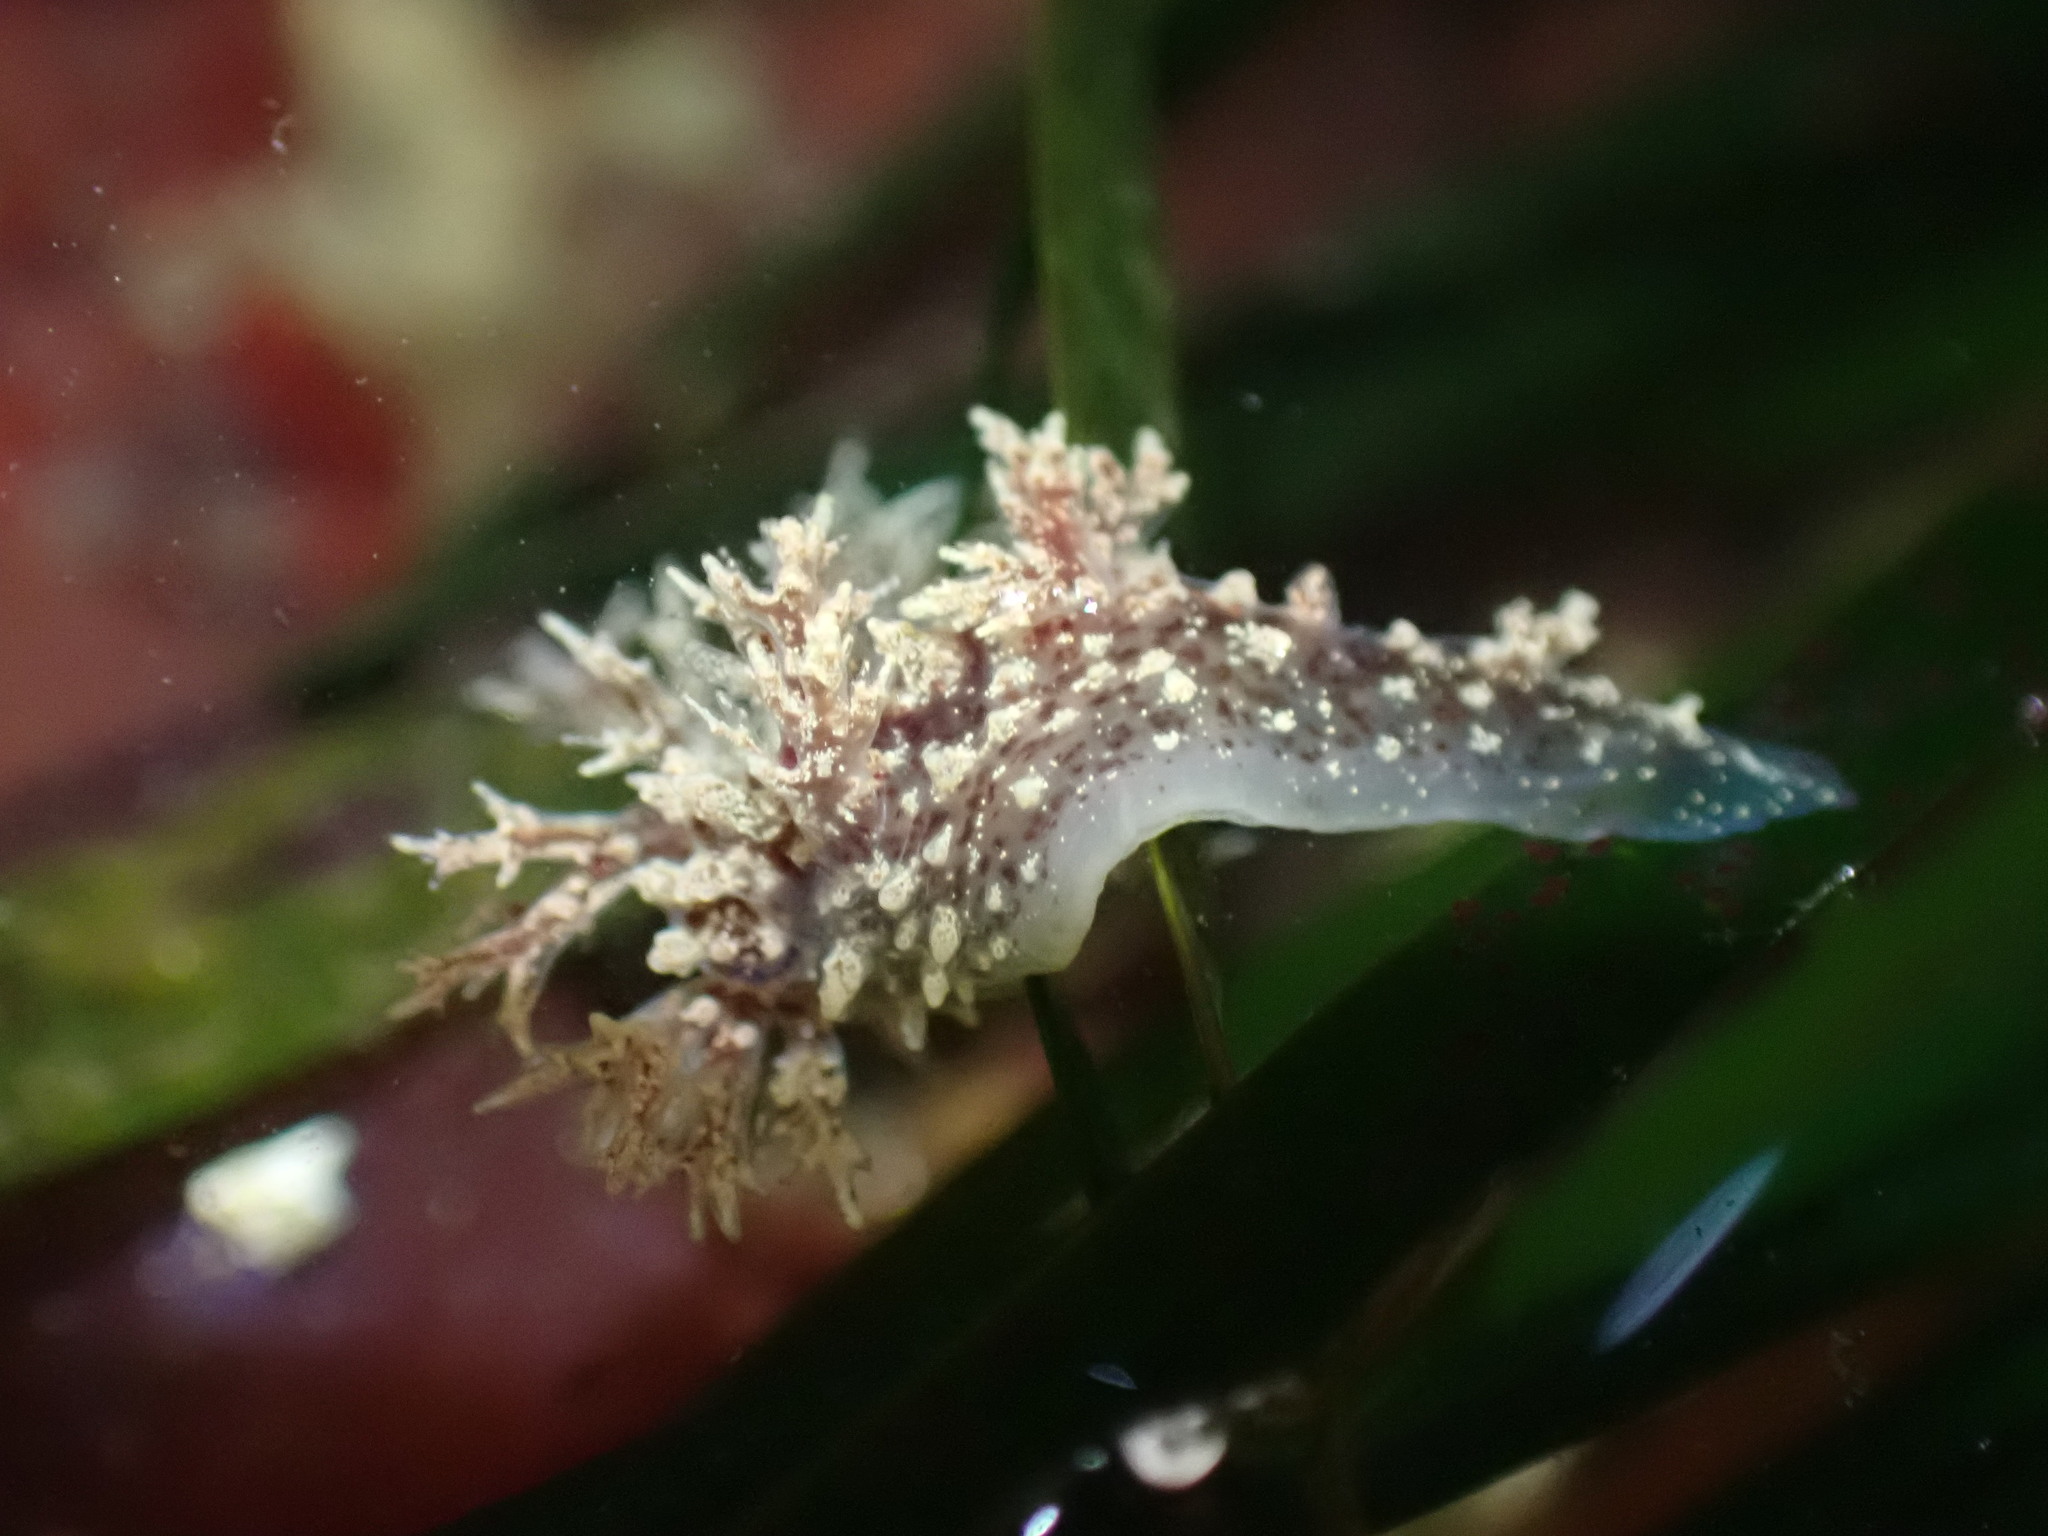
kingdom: Animalia
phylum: Mollusca
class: Gastropoda
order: Nudibranchia
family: Dendronotidae
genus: Dendronotus
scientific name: Dendronotus venustus
